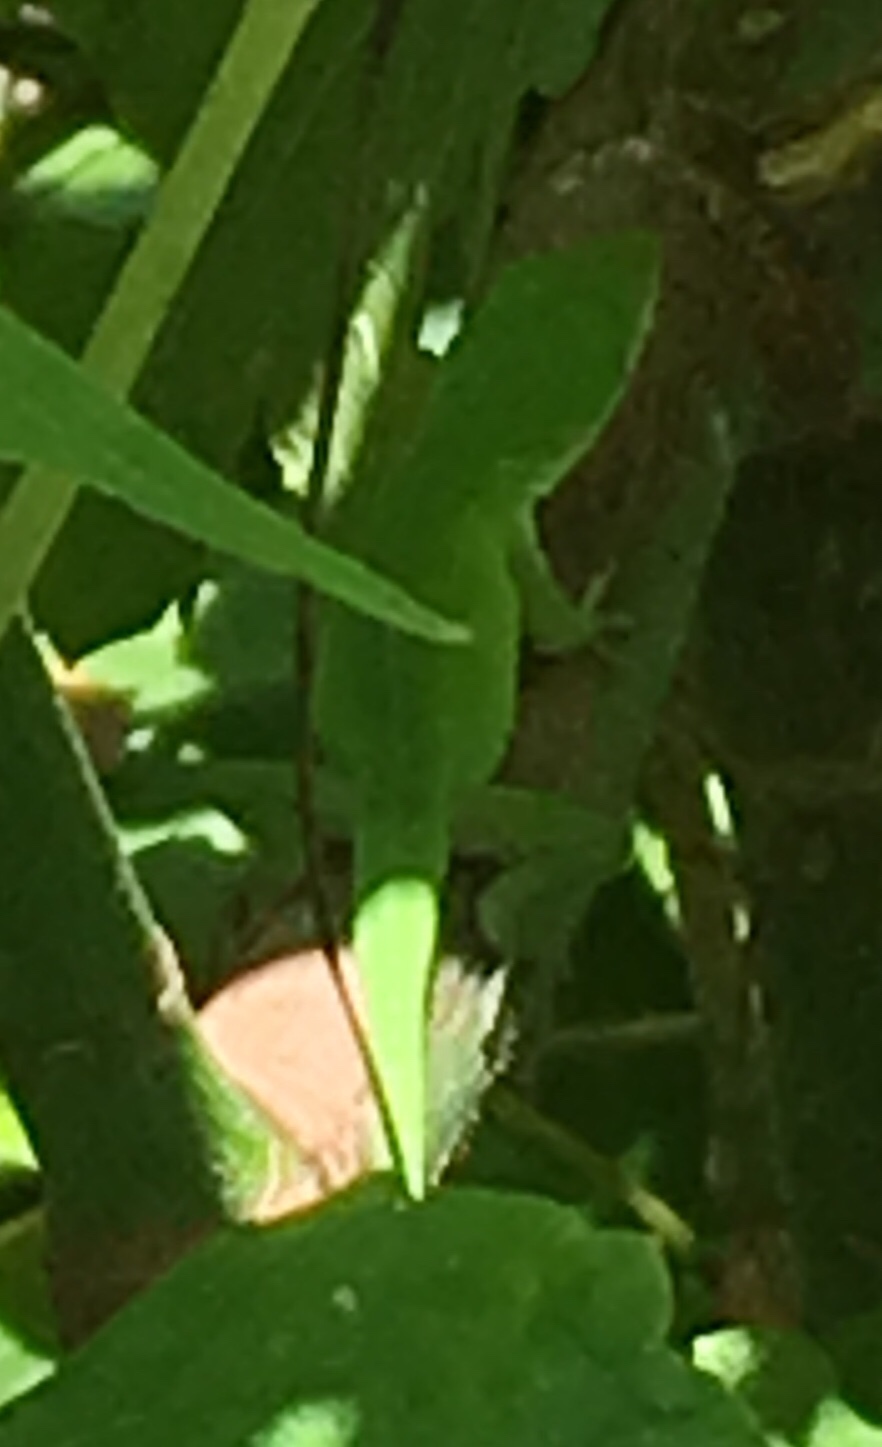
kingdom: Animalia
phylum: Chordata
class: Squamata
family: Dactyloidae
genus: Anolis
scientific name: Anolis carolinensis
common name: Green anole
